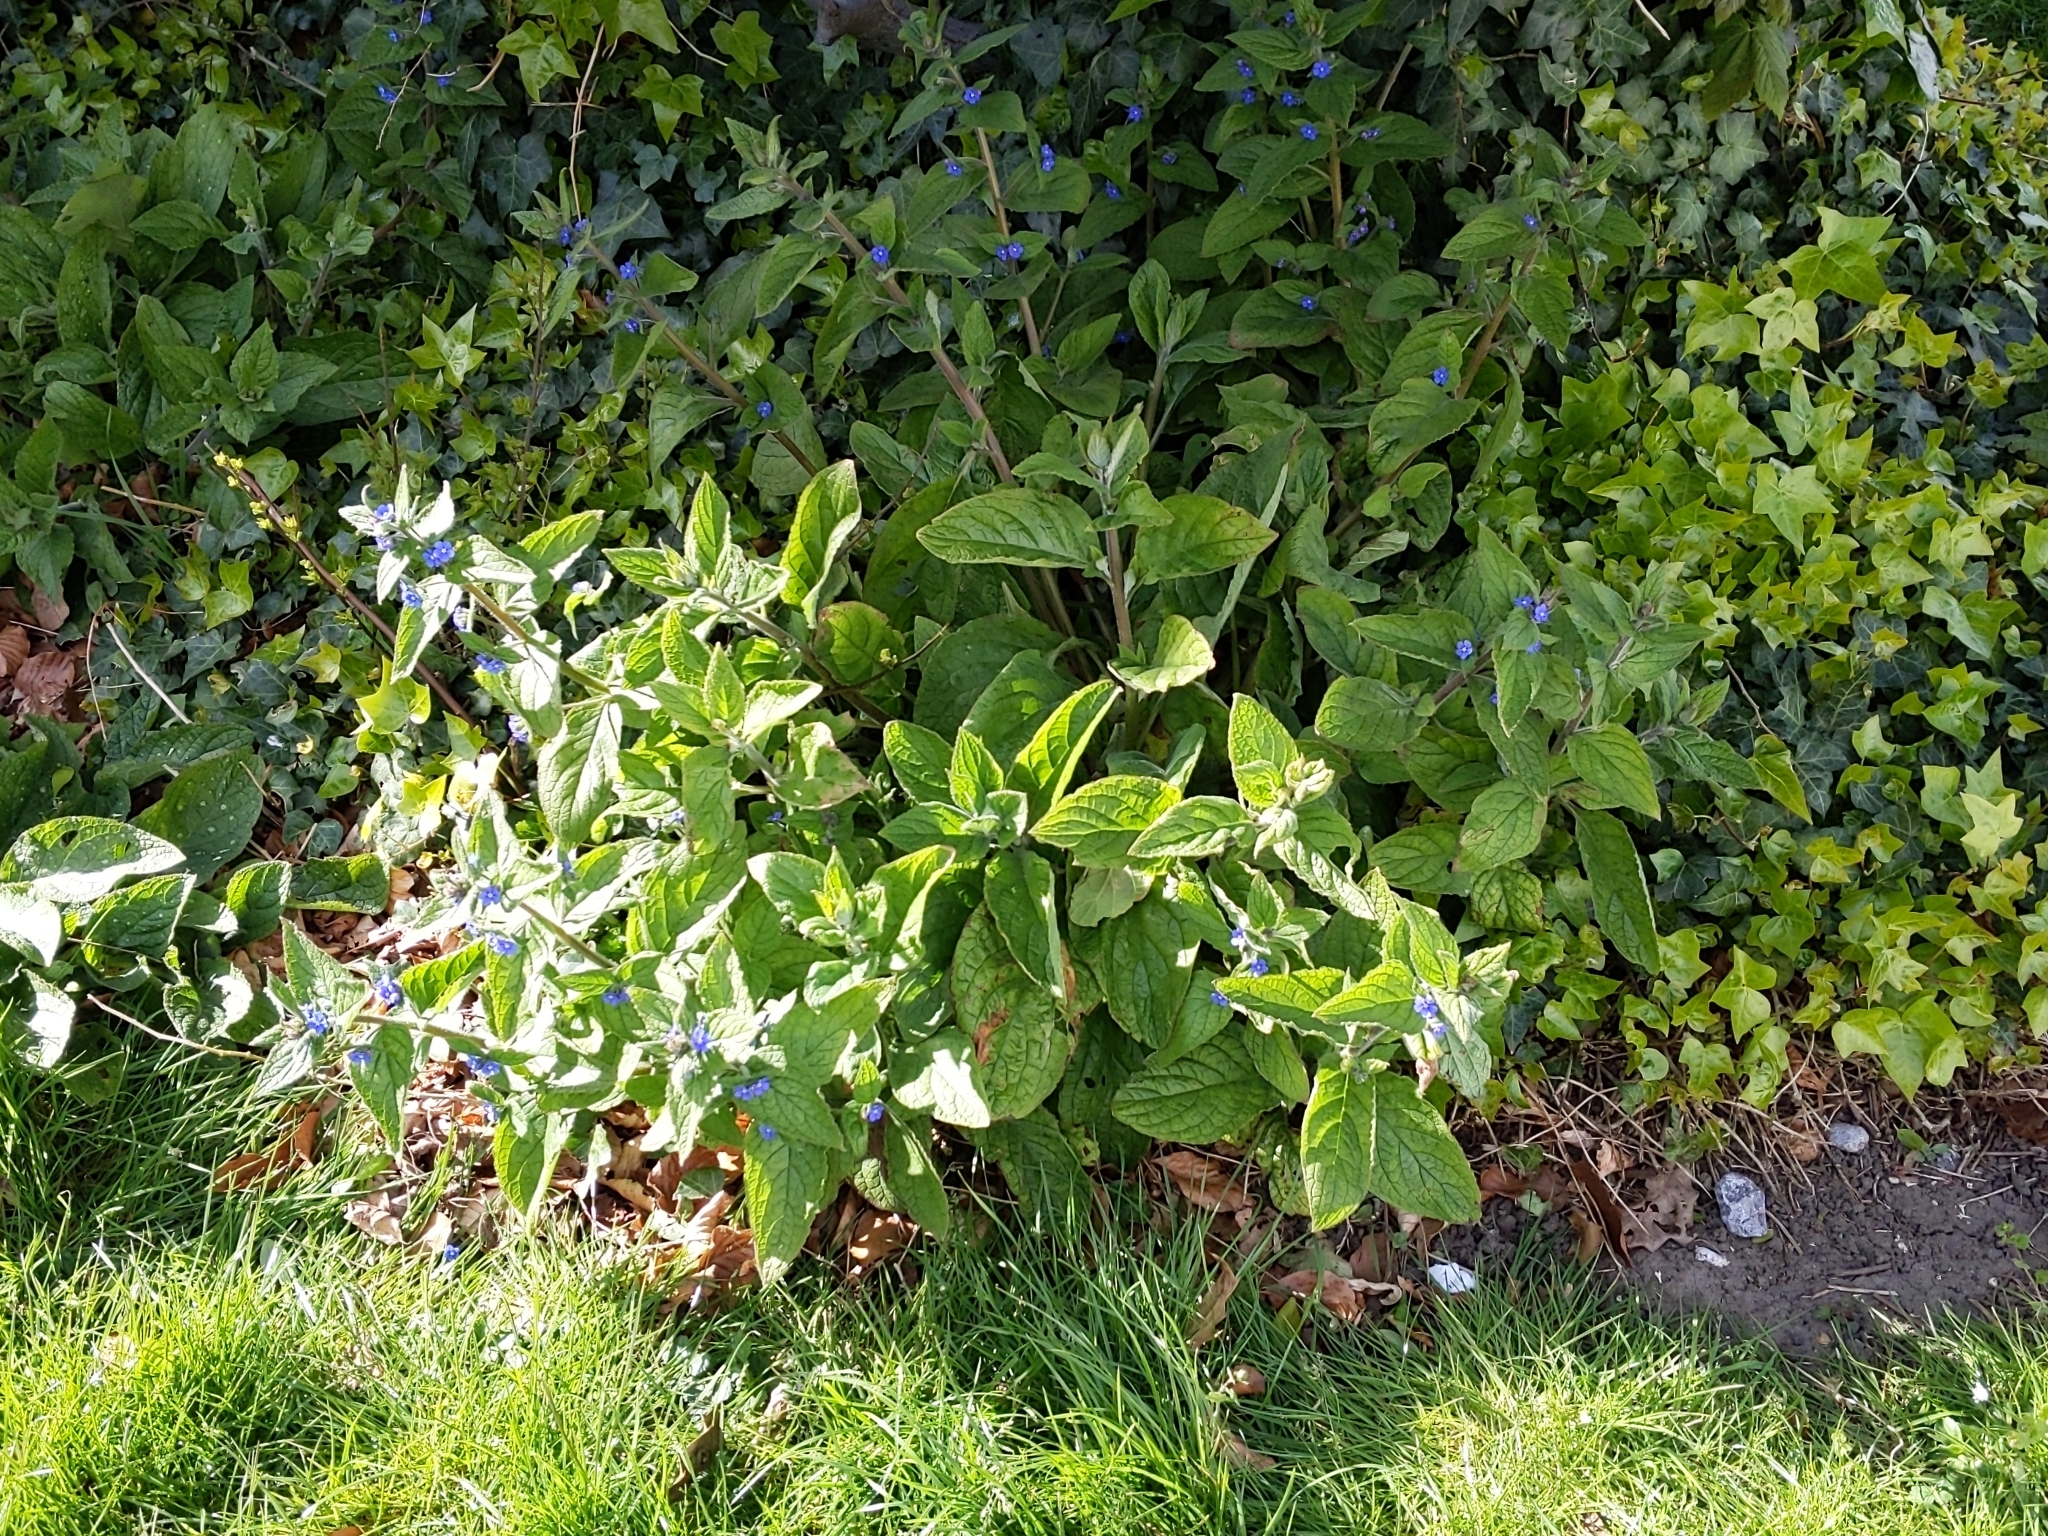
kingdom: Plantae
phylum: Tracheophyta
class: Magnoliopsida
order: Boraginales
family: Boraginaceae
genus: Pentaglottis
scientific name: Pentaglottis sempervirens
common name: Green alkanet
